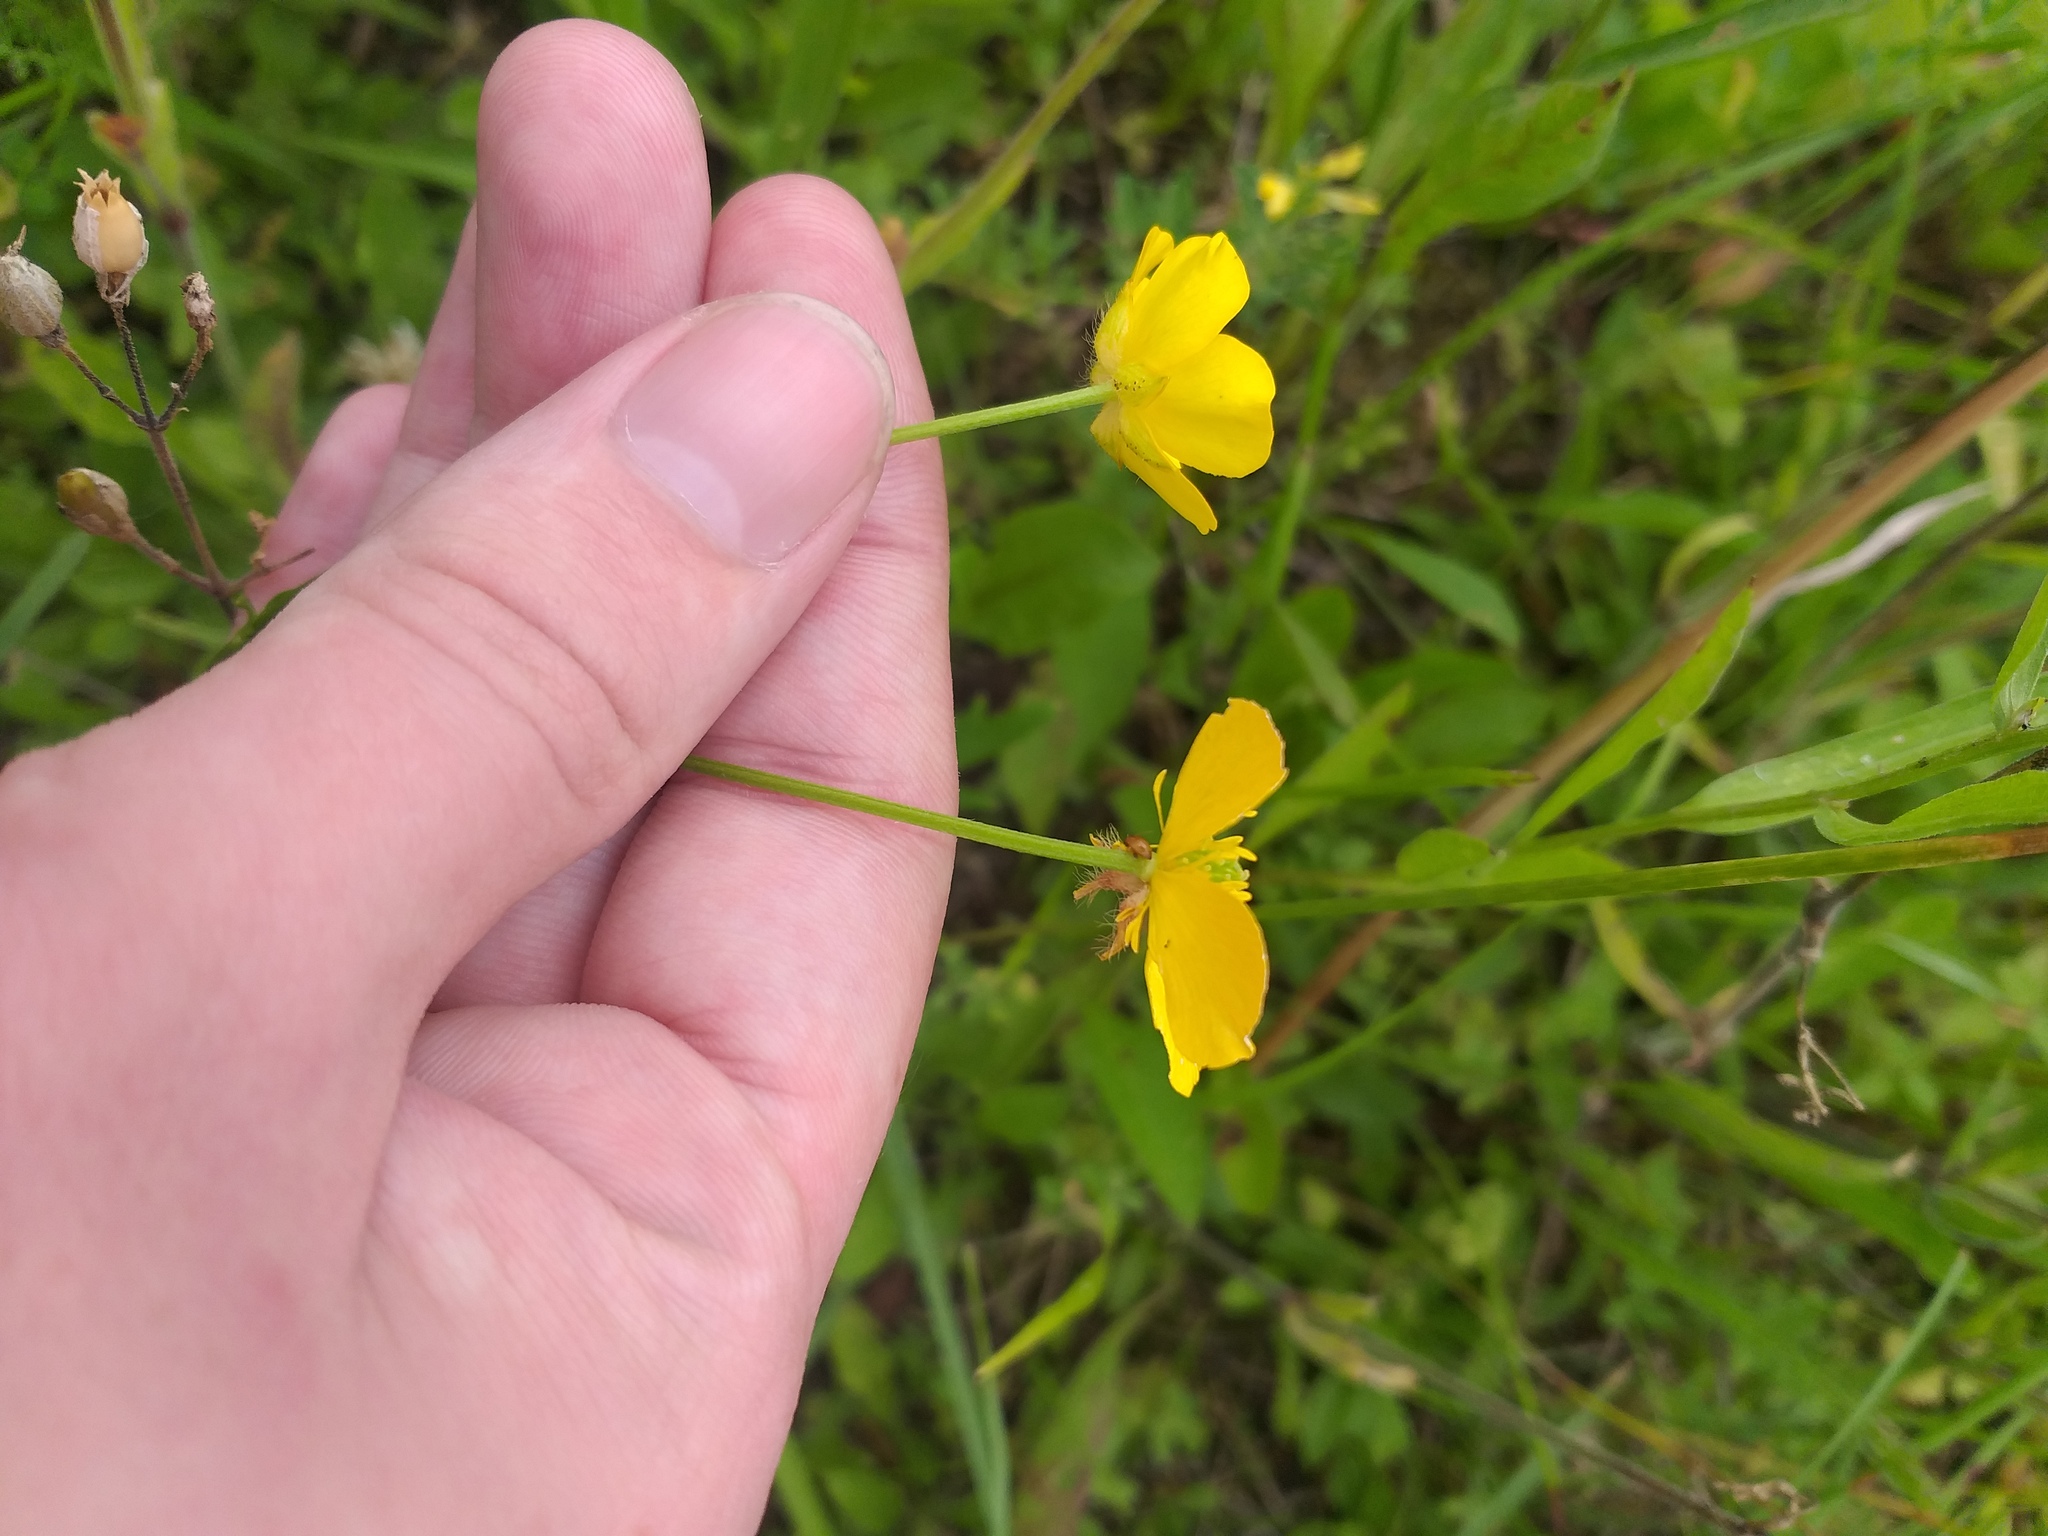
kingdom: Plantae
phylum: Tracheophyta
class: Magnoliopsida
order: Ranunculales
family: Ranunculaceae
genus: Ranunculus
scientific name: Ranunculus polyanthemos
